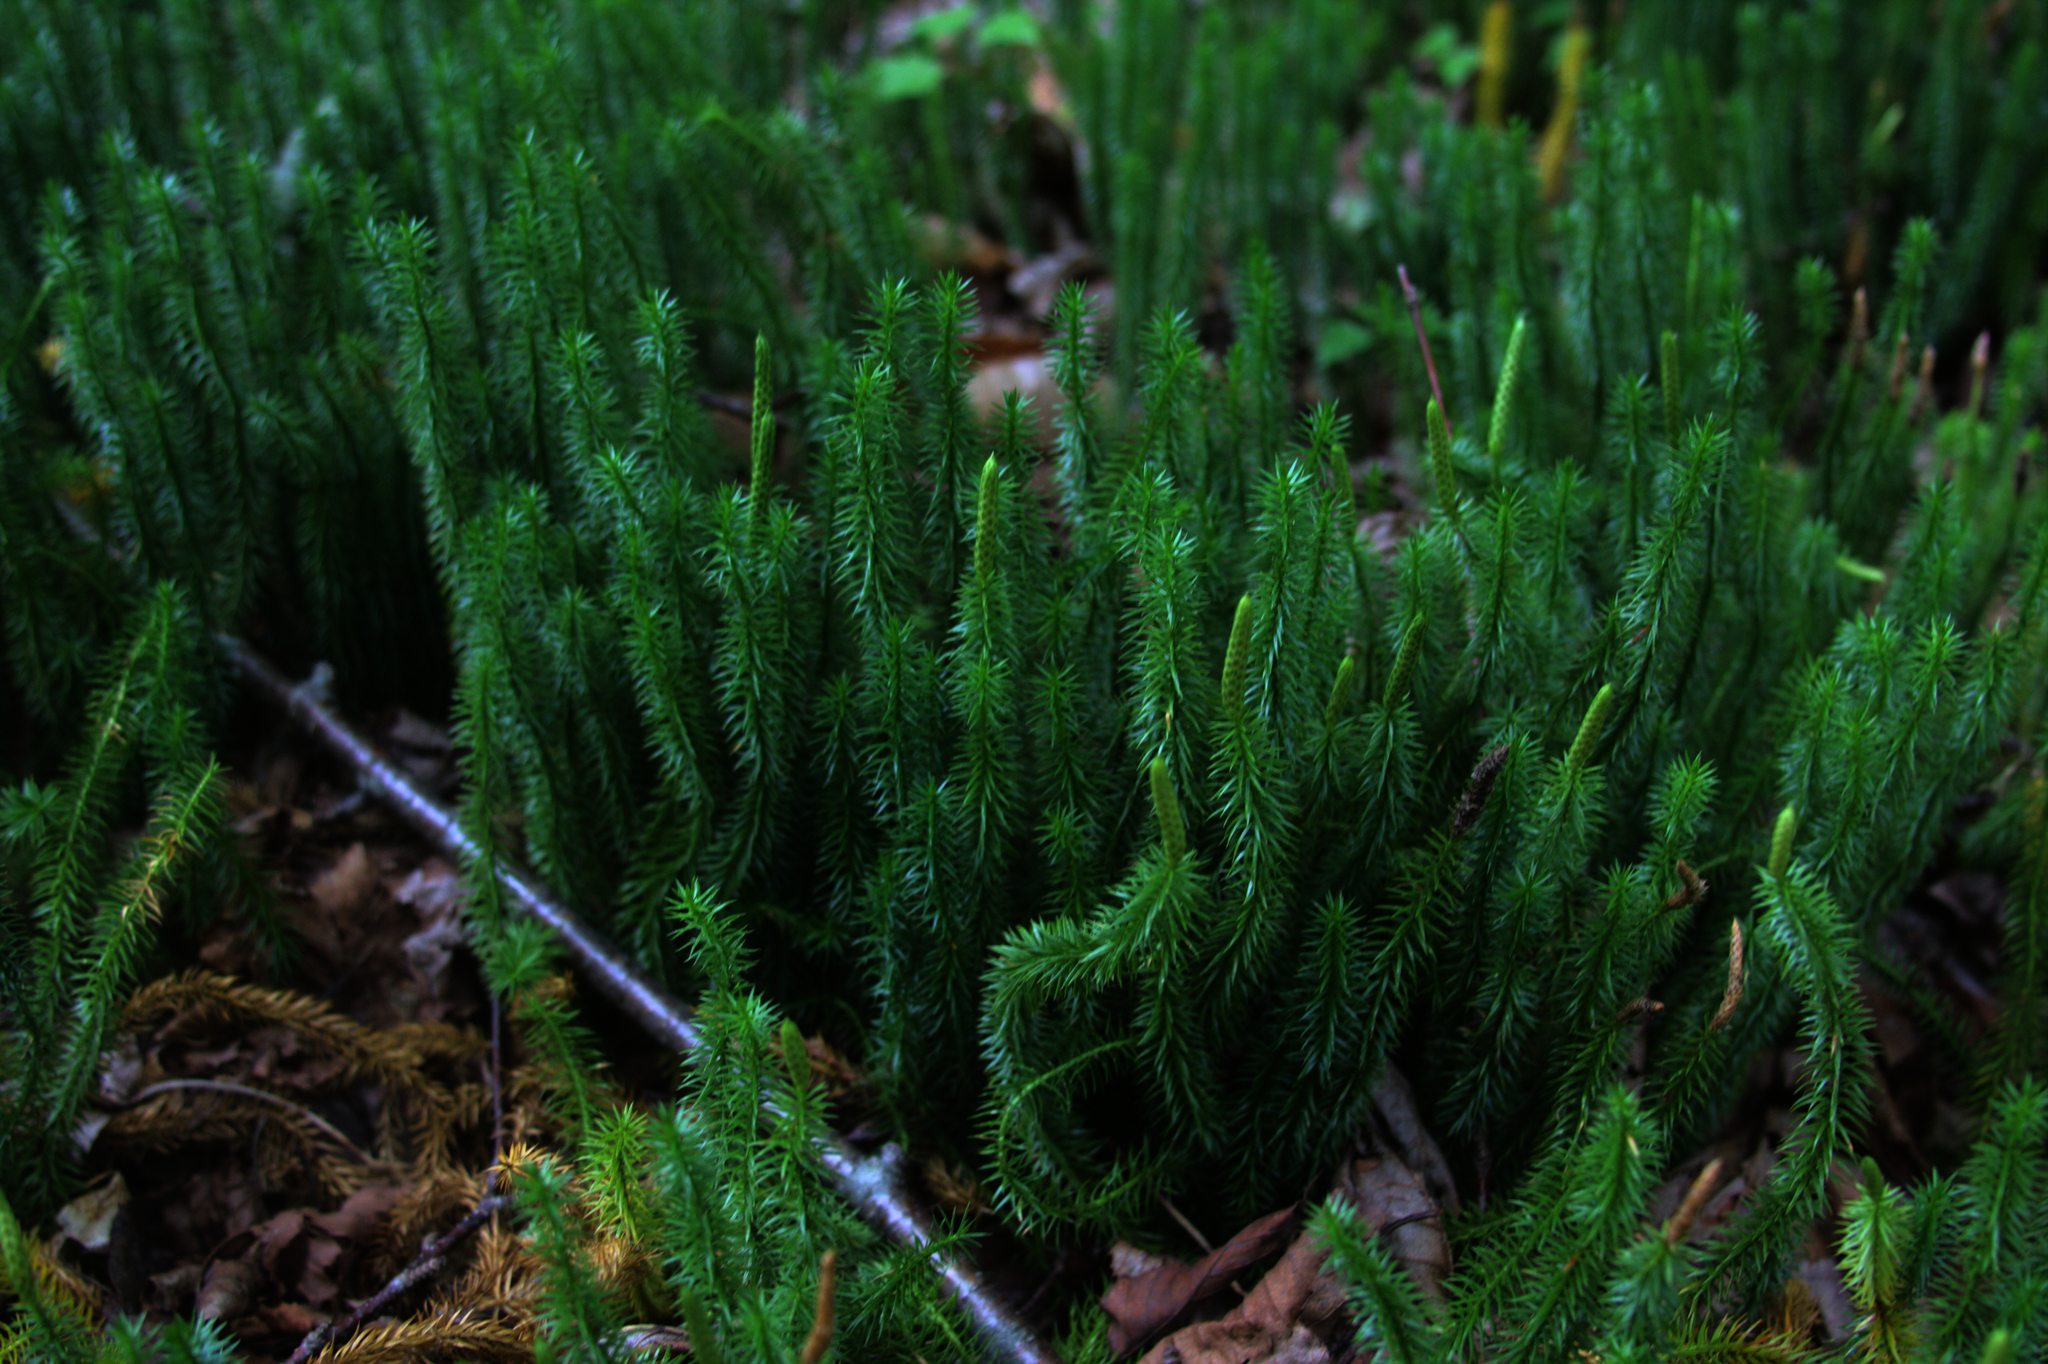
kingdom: Plantae
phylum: Tracheophyta
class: Lycopodiopsida
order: Lycopodiales
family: Lycopodiaceae
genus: Spinulum
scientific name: Spinulum annotinum
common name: Interrupted club-moss
